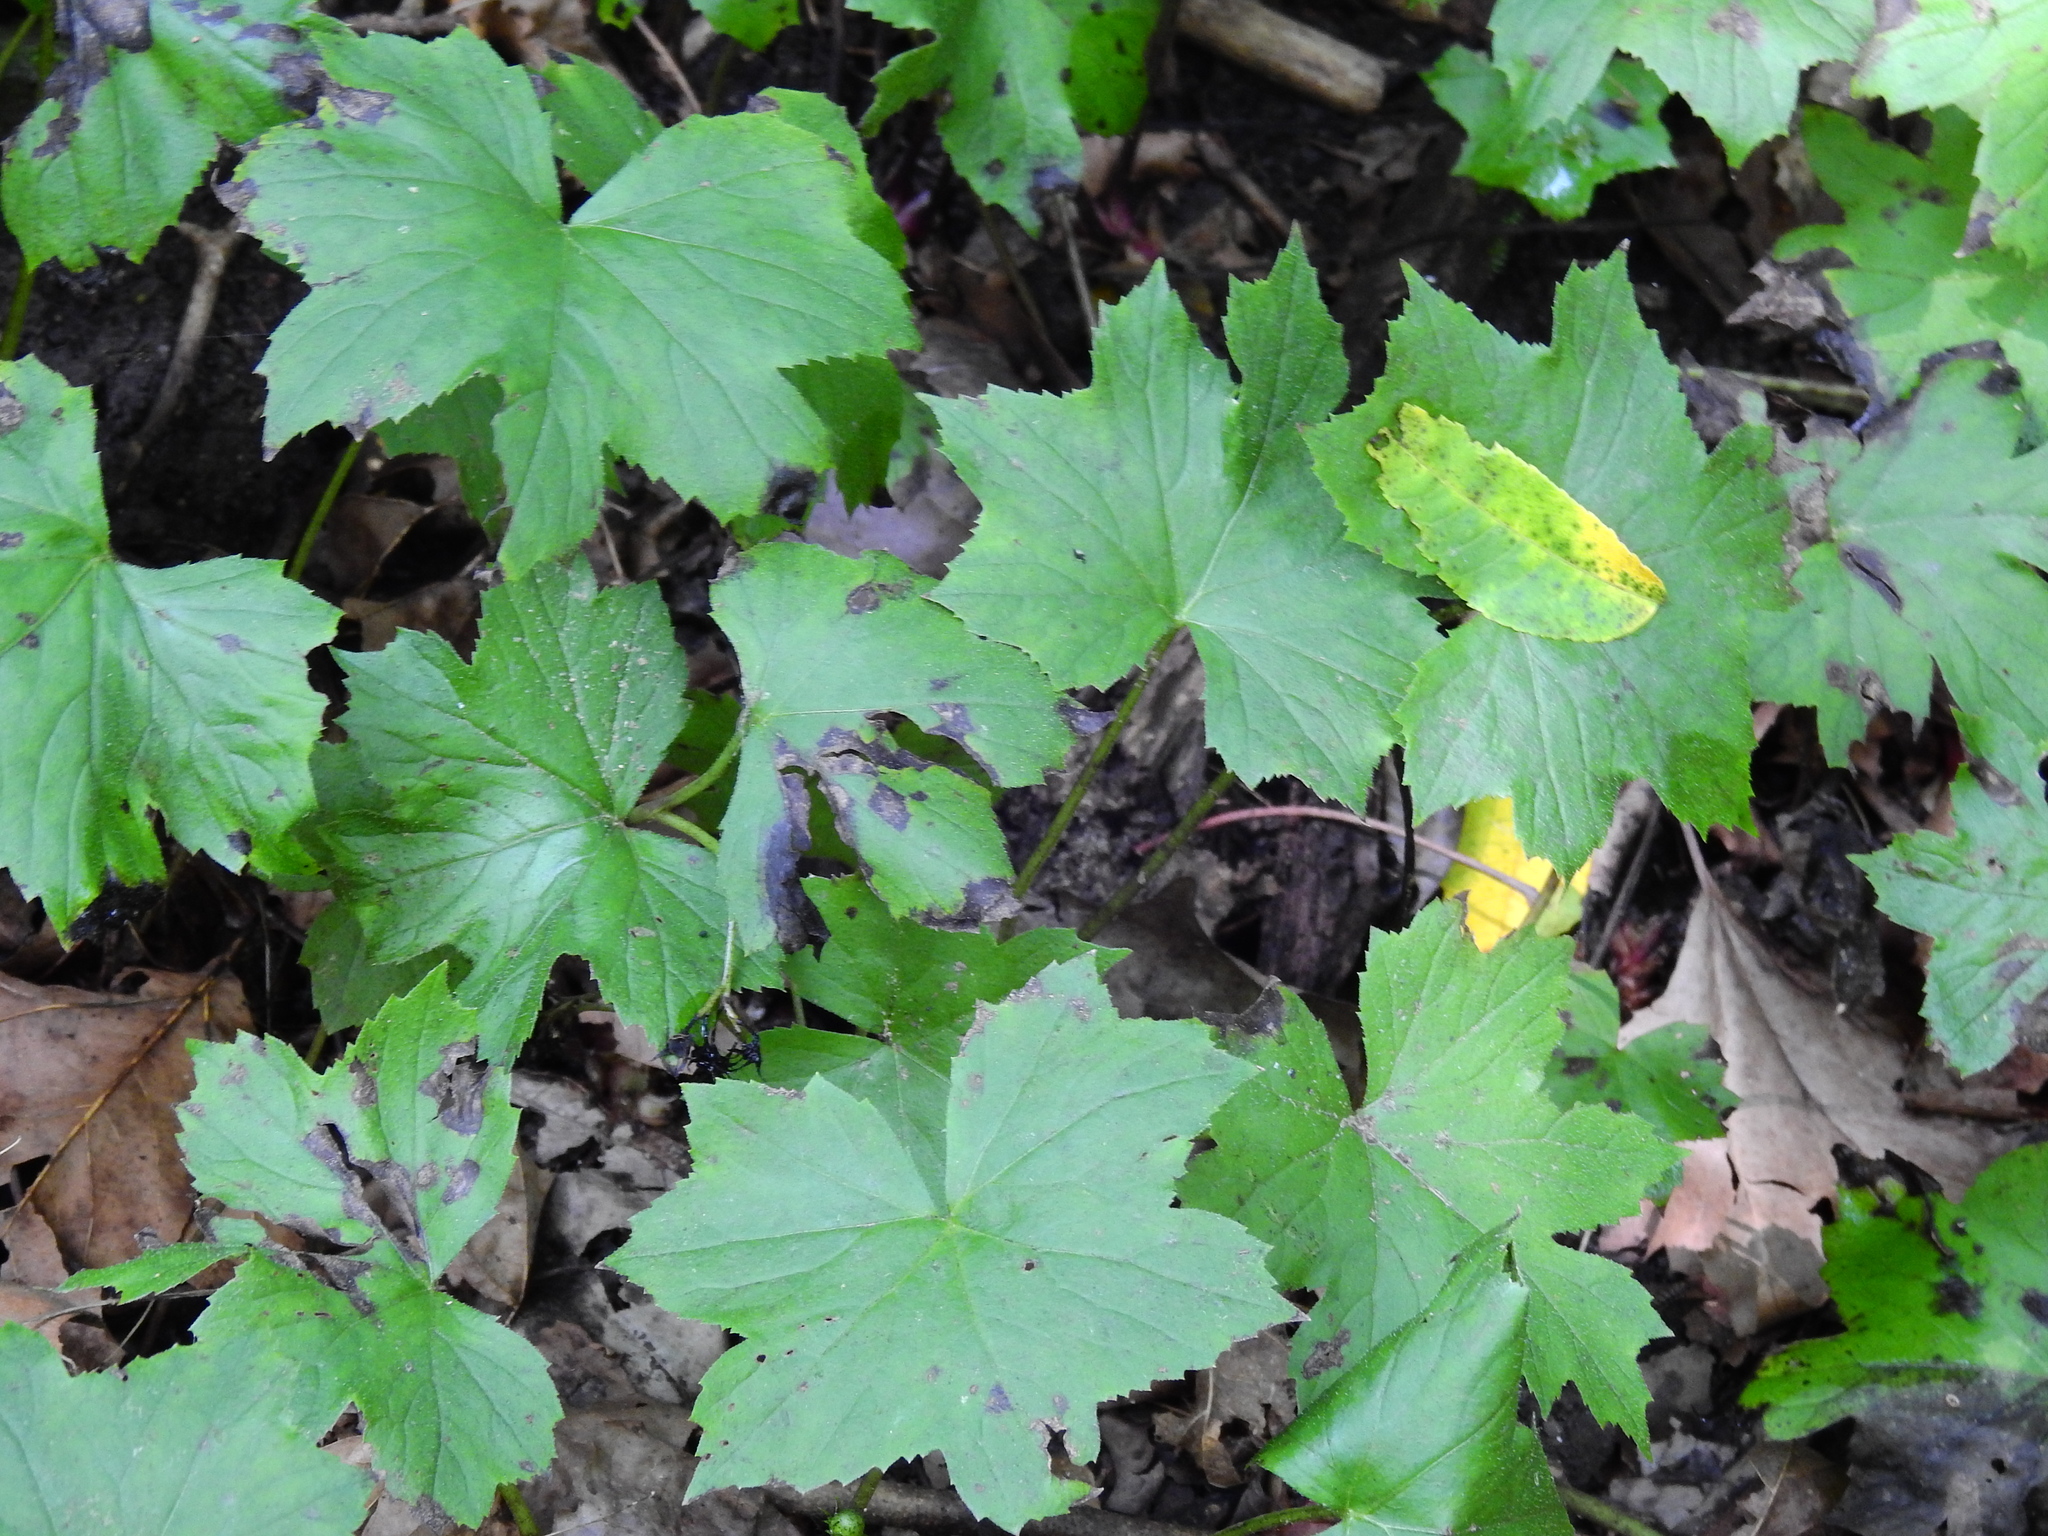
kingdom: Plantae
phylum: Tracheophyta
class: Magnoliopsida
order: Boraginales
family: Hydrophyllaceae
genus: Hydrophyllum
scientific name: Hydrophyllum canadense
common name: Canada waterleaf
